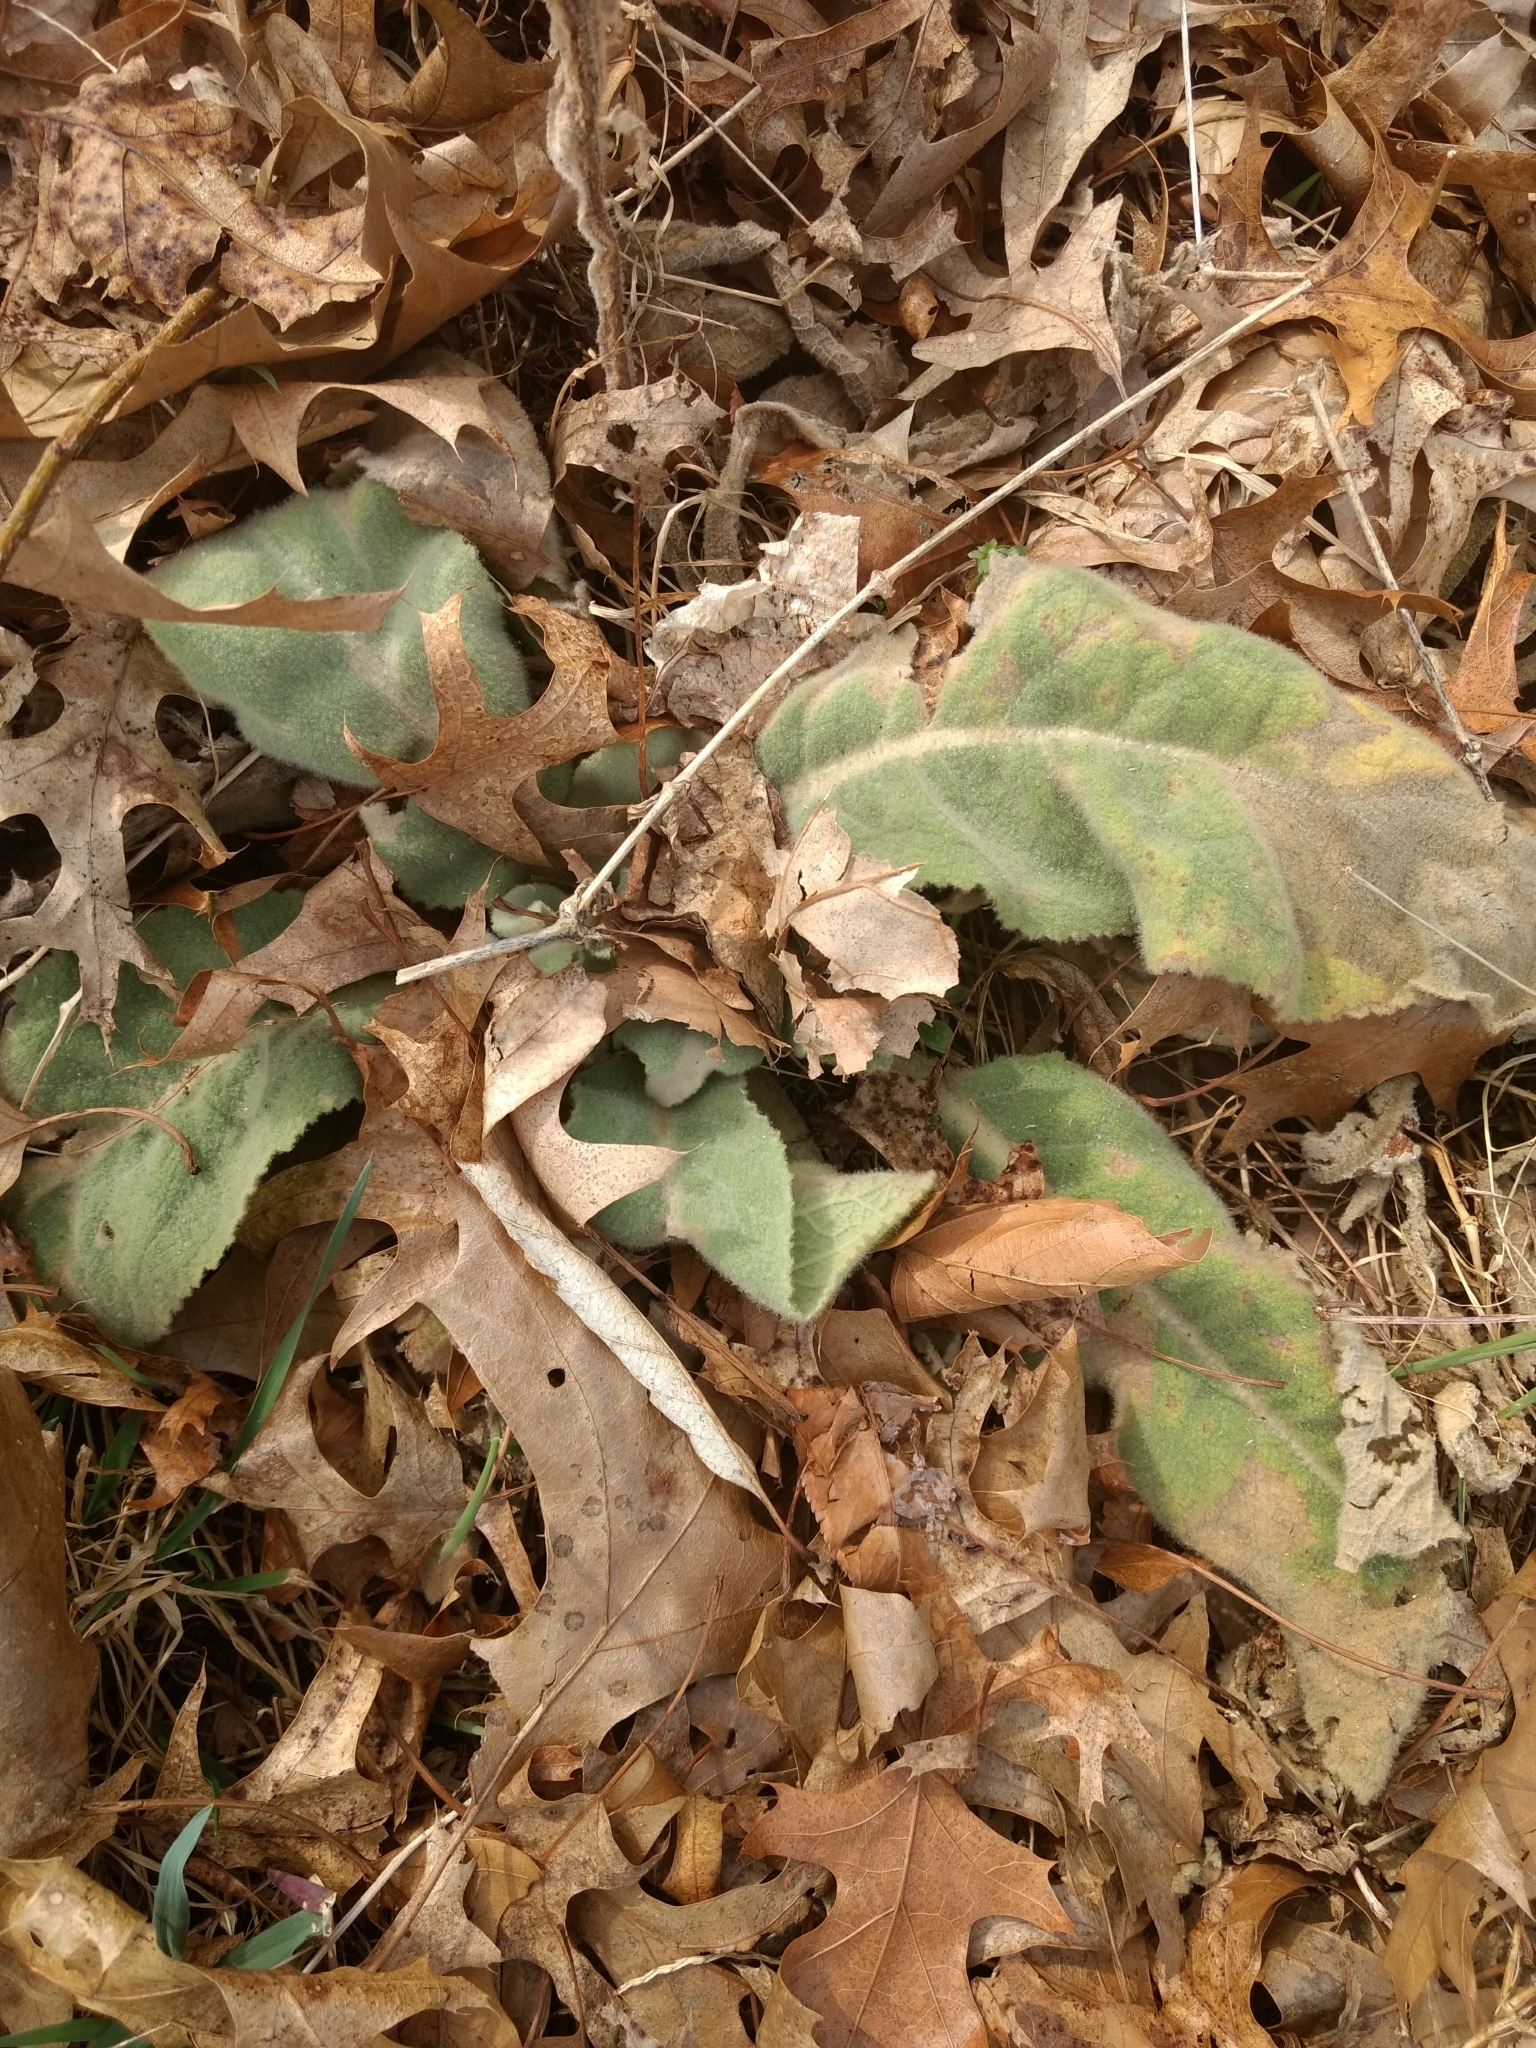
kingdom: Plantae
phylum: Tracheophyta
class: Magnoliopsida
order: Lamiales
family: Scrophulariaceae
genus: Verbascum
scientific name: Verbascum thapsus
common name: Common mullein
